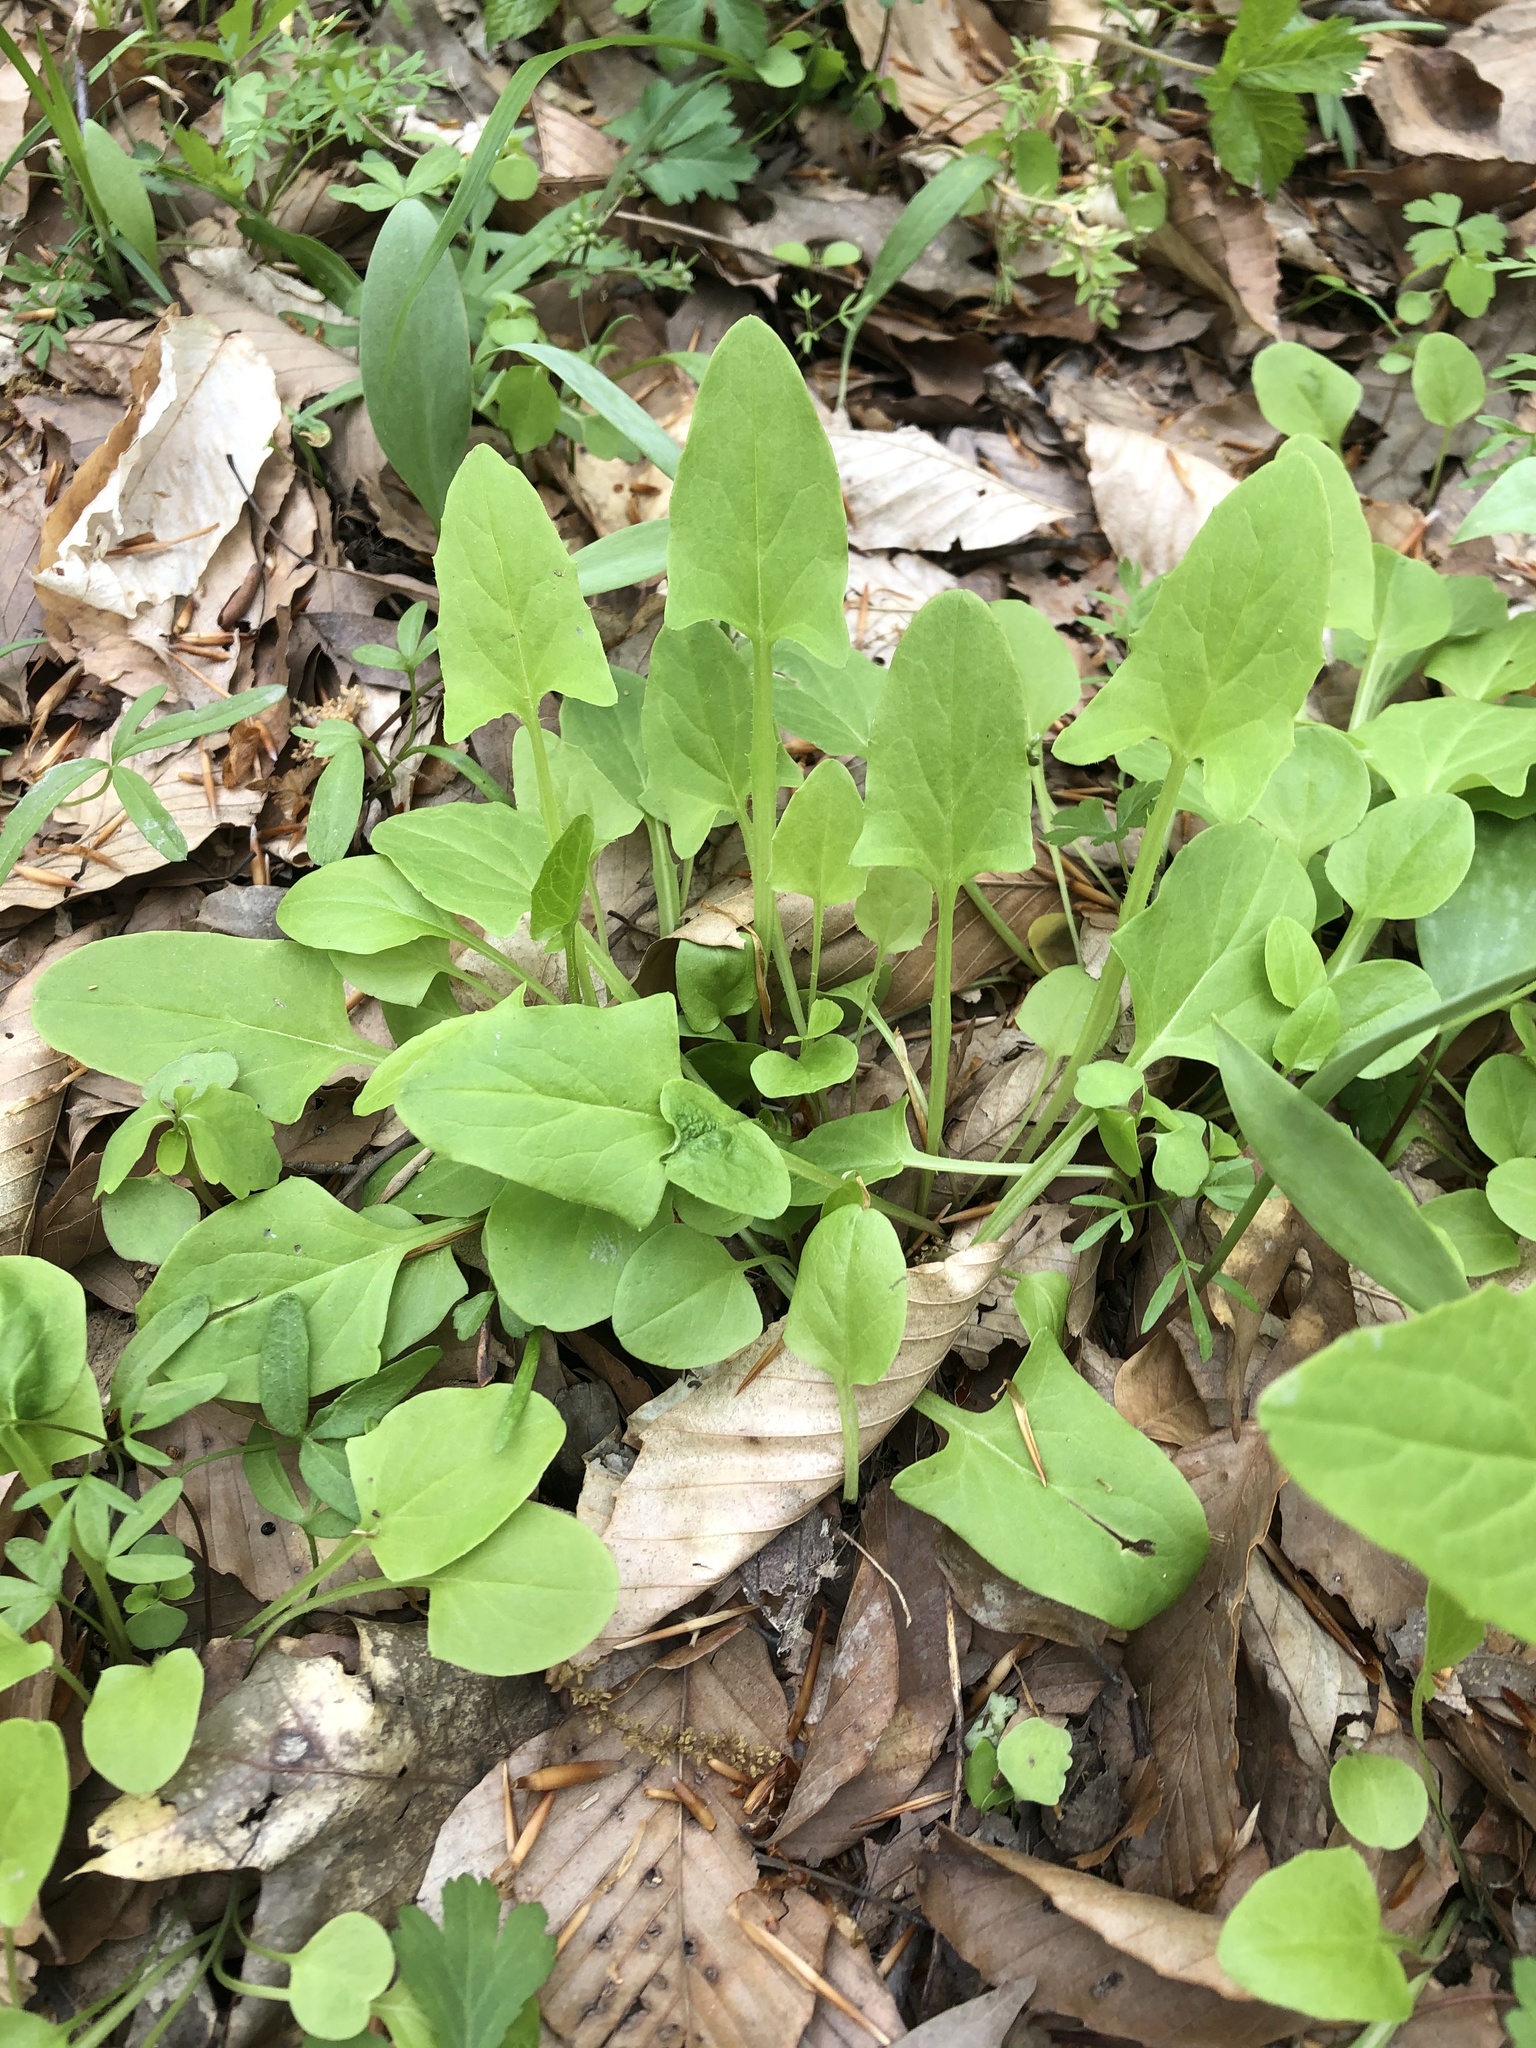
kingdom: Plantae
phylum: Tracheophyta
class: Magnoliopsida
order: Asterales
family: Asteraceae
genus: Nabalus
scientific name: Nabalus crepidineus
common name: Nodding rattlesnakeroot
